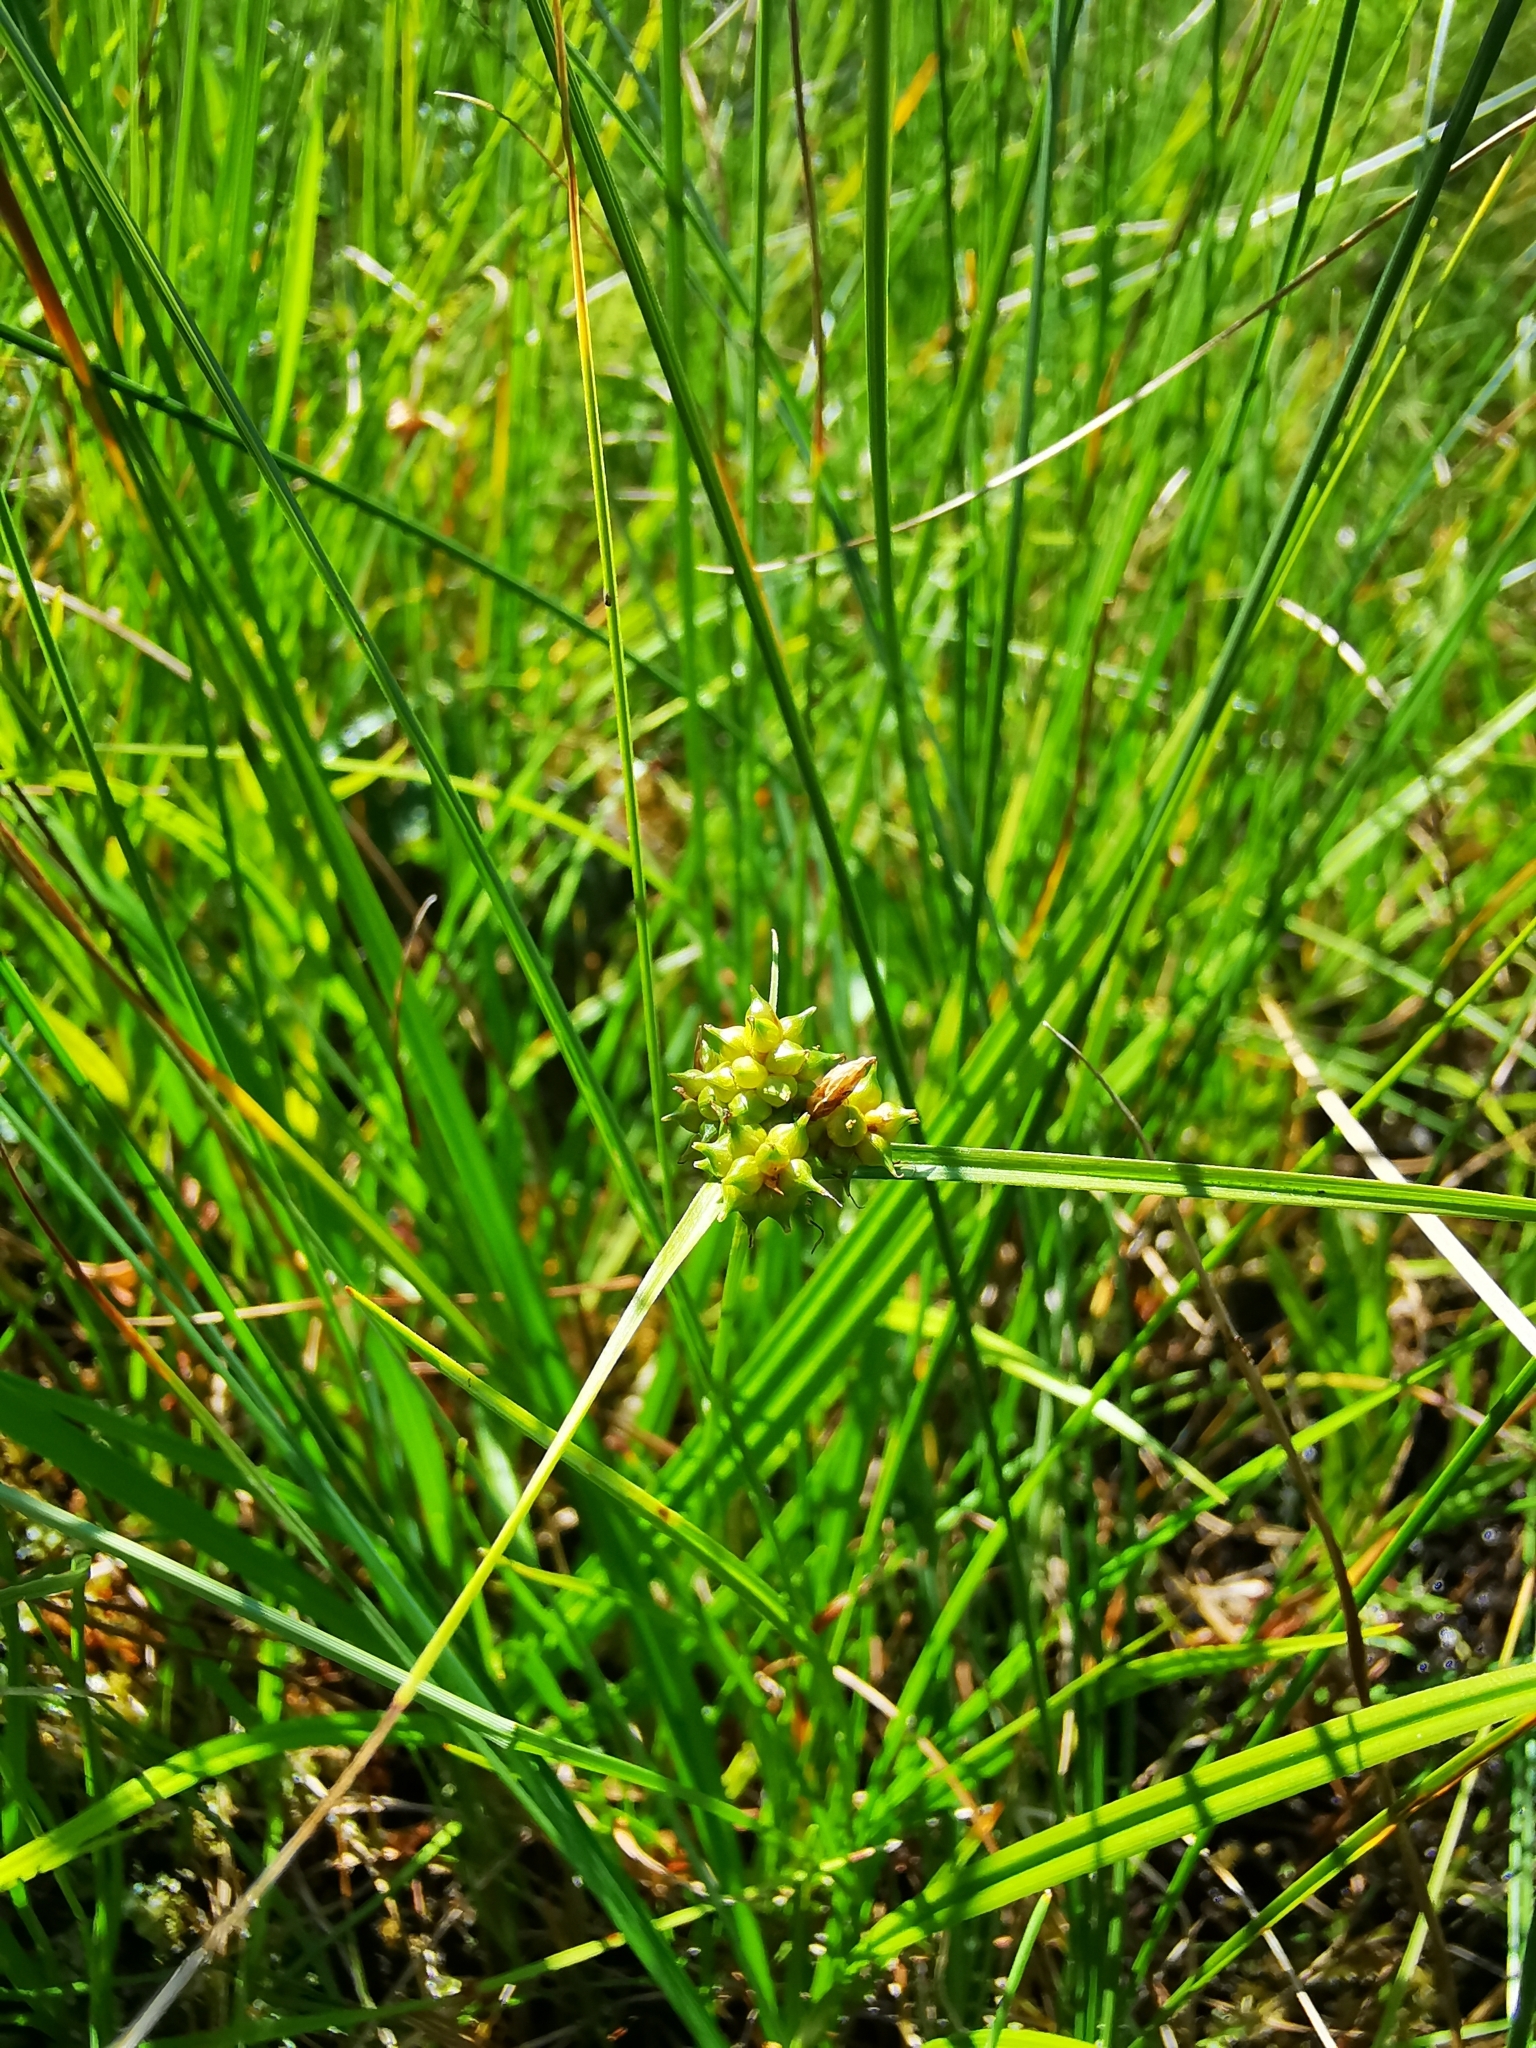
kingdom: Plantae
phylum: Tracheophyta
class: Liliopsida
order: Poales
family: Cyperaceae
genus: Carex
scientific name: Carex
